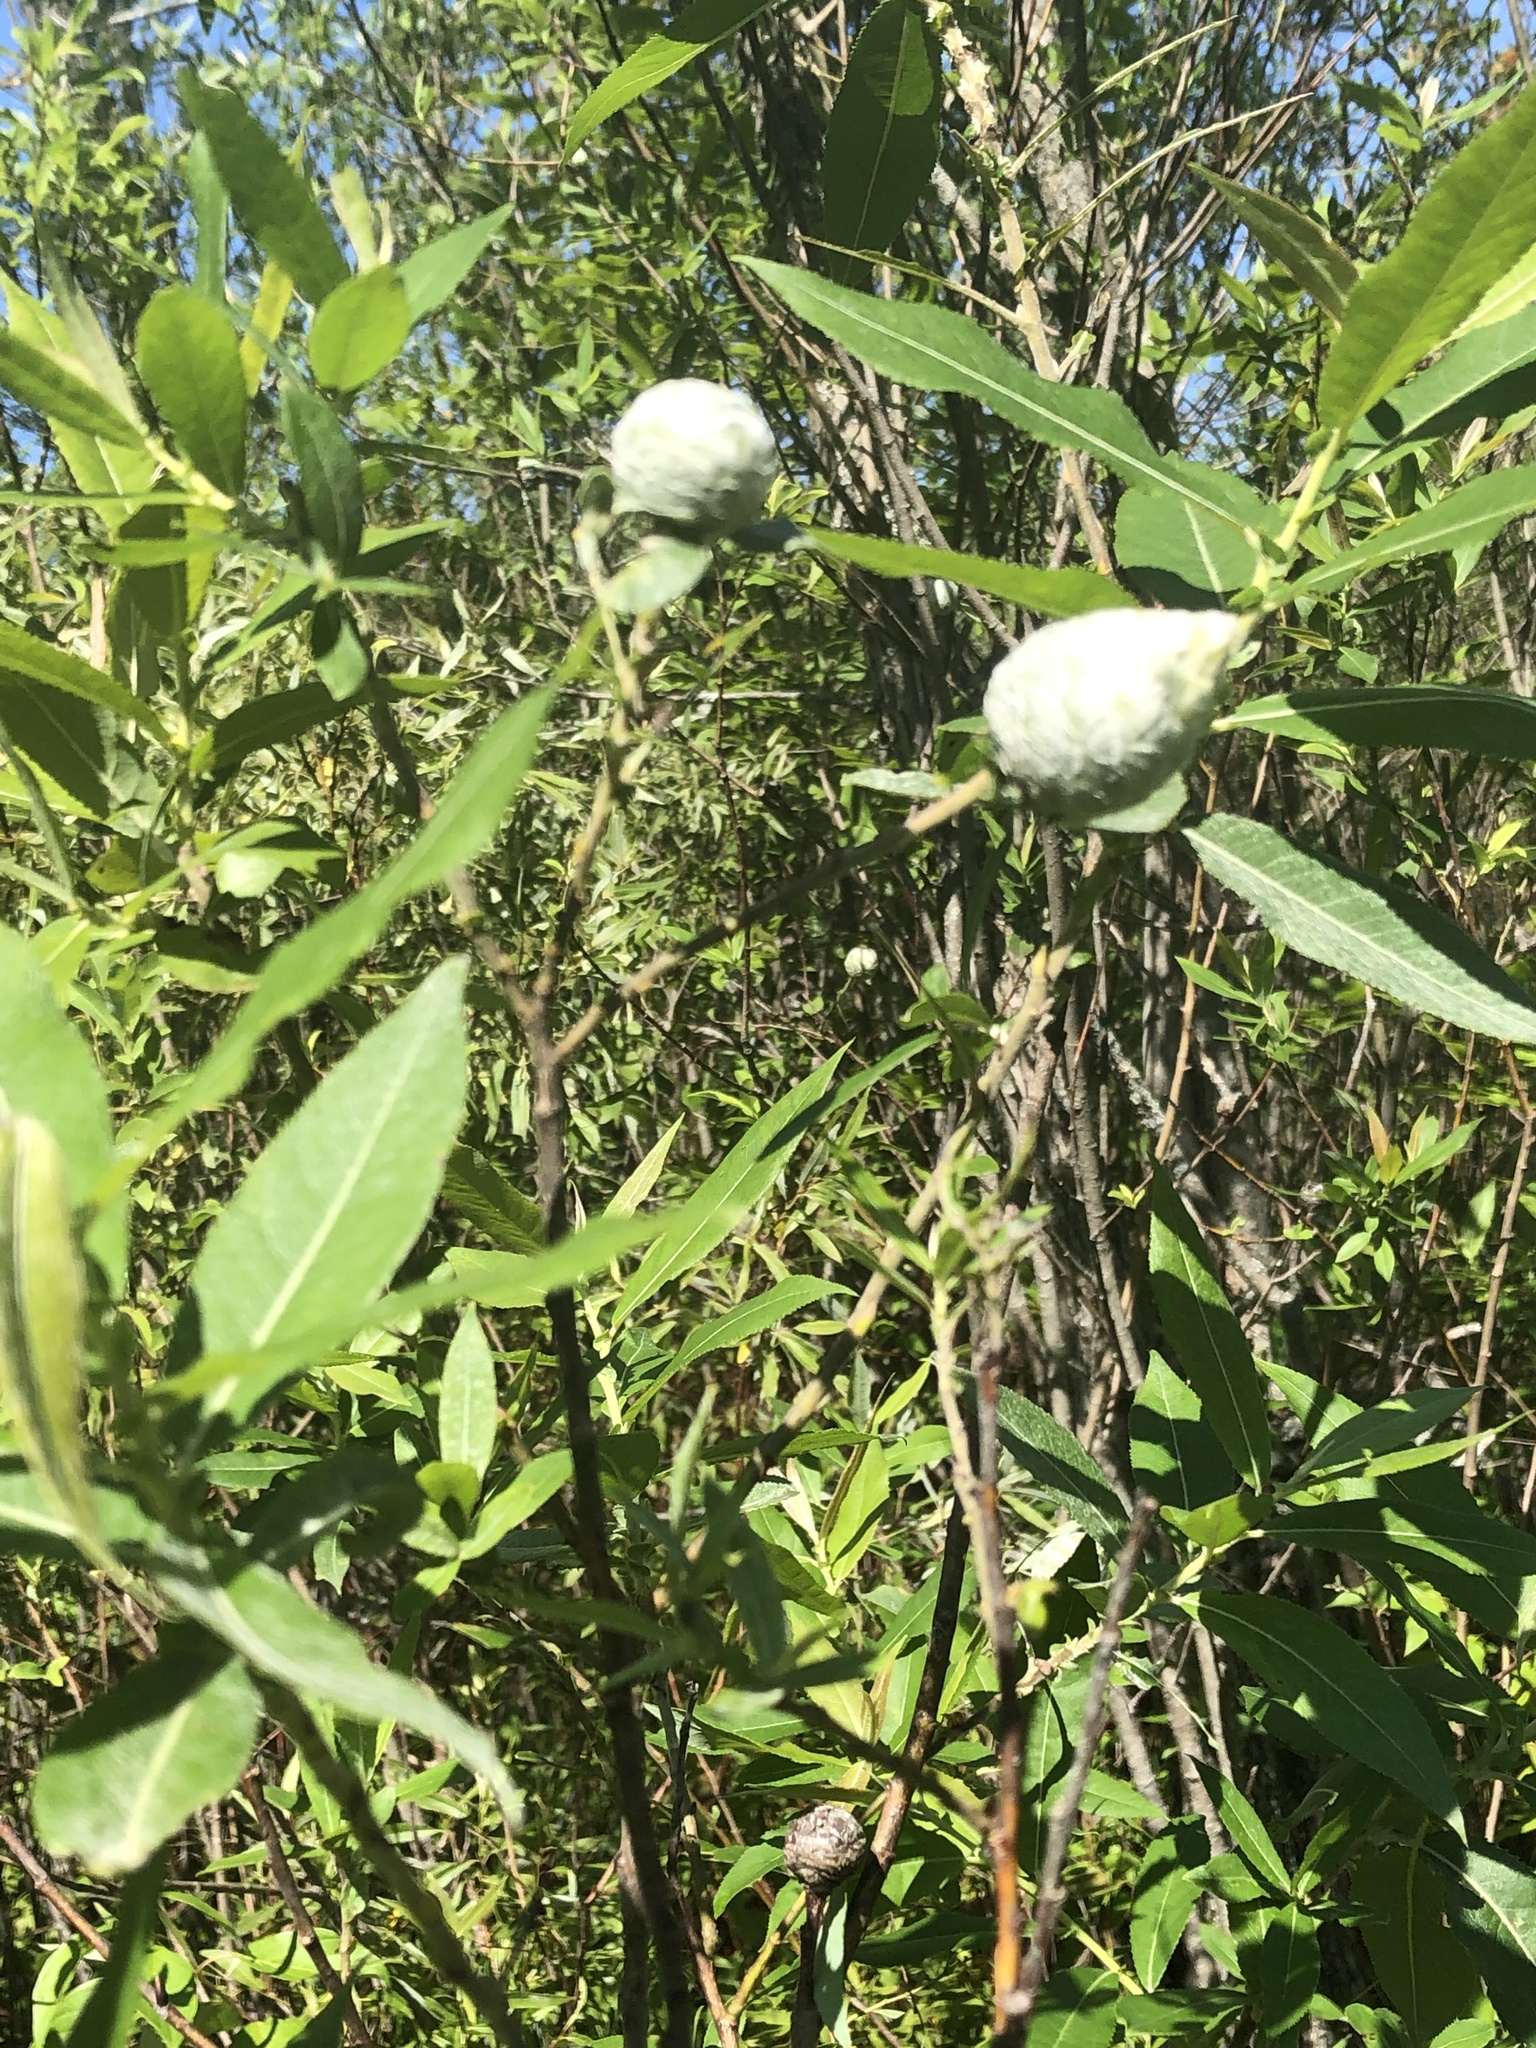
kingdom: Animalia
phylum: Arthropoda
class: Insecta
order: Diptera
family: Cecidomyiidae
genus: Rabdophaga
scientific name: Rabdophaga strobiloides
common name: Willow pinecone gall midge
